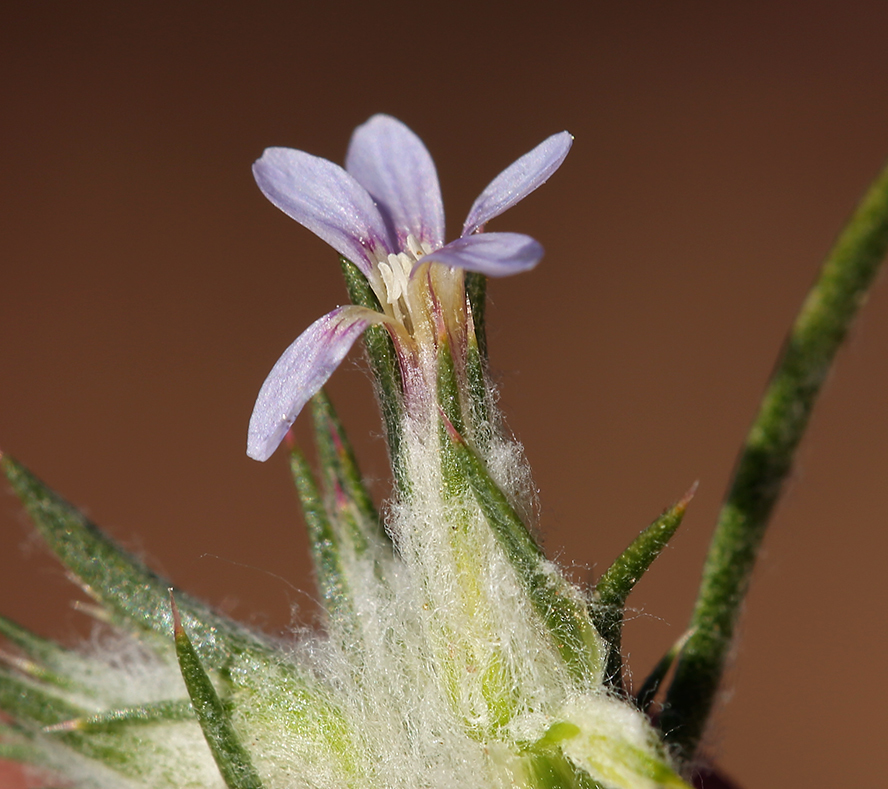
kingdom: Plantae
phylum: Tracheophyta
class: Magnoliopsida
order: Ericales
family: Polemoniaceae
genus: Eriastrum
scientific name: Eriastrum tracyi
